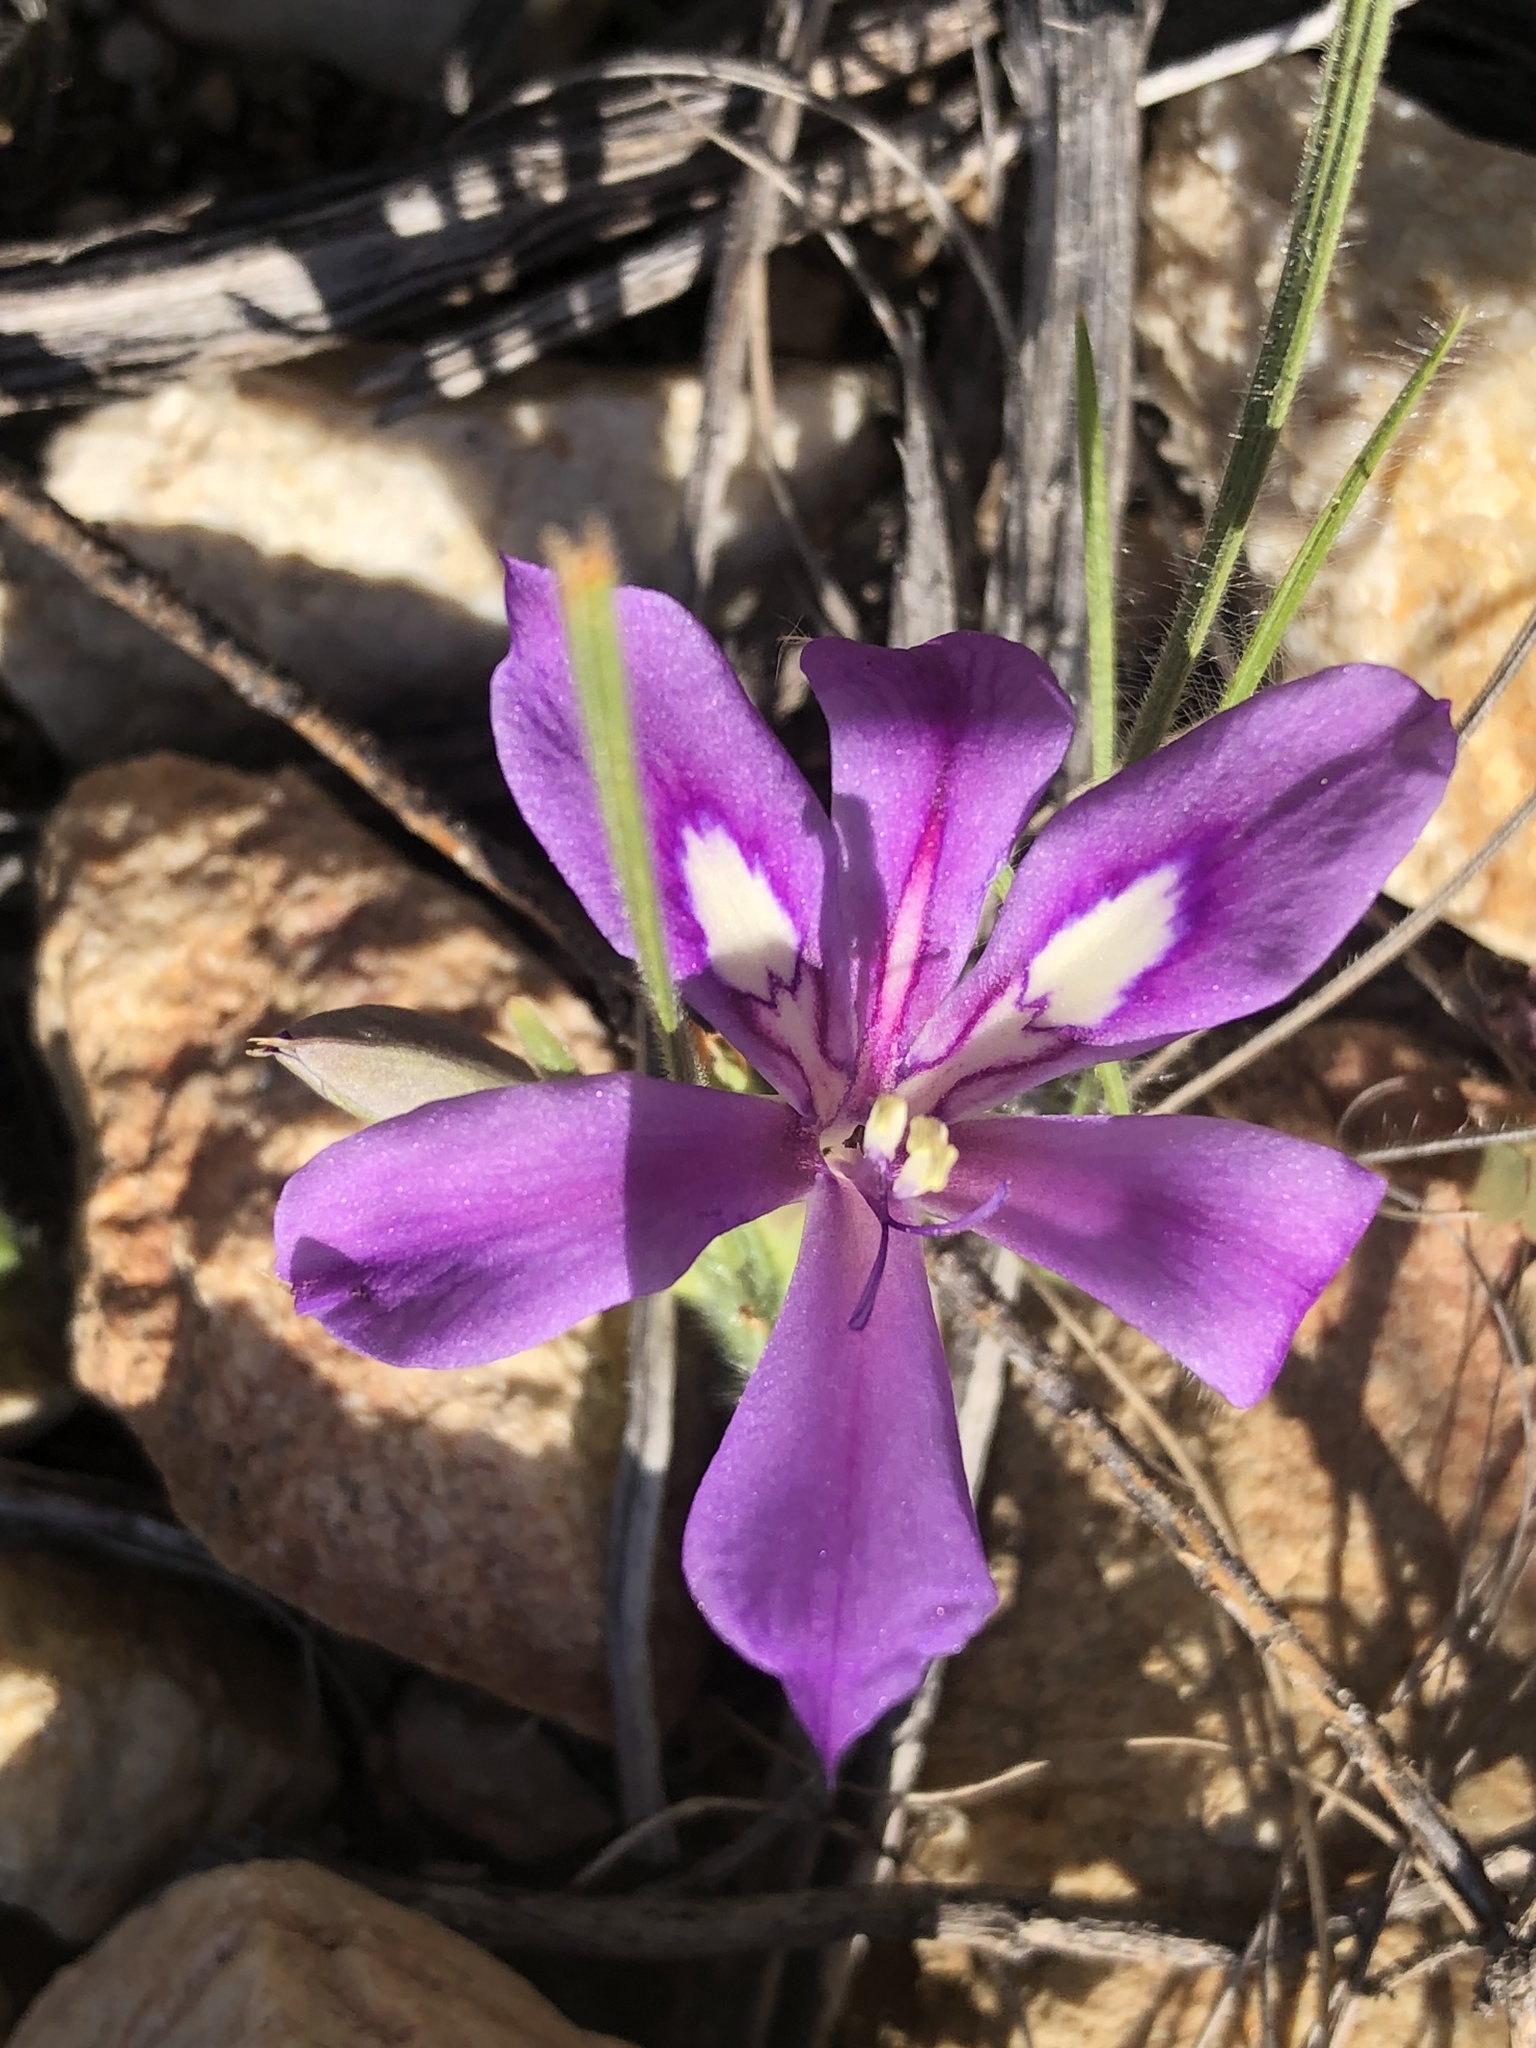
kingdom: Plantae
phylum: Tracheophyta
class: Liliopsida
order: Asparagales
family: Iridaceae
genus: Babiana
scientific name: Babiana sambucina
